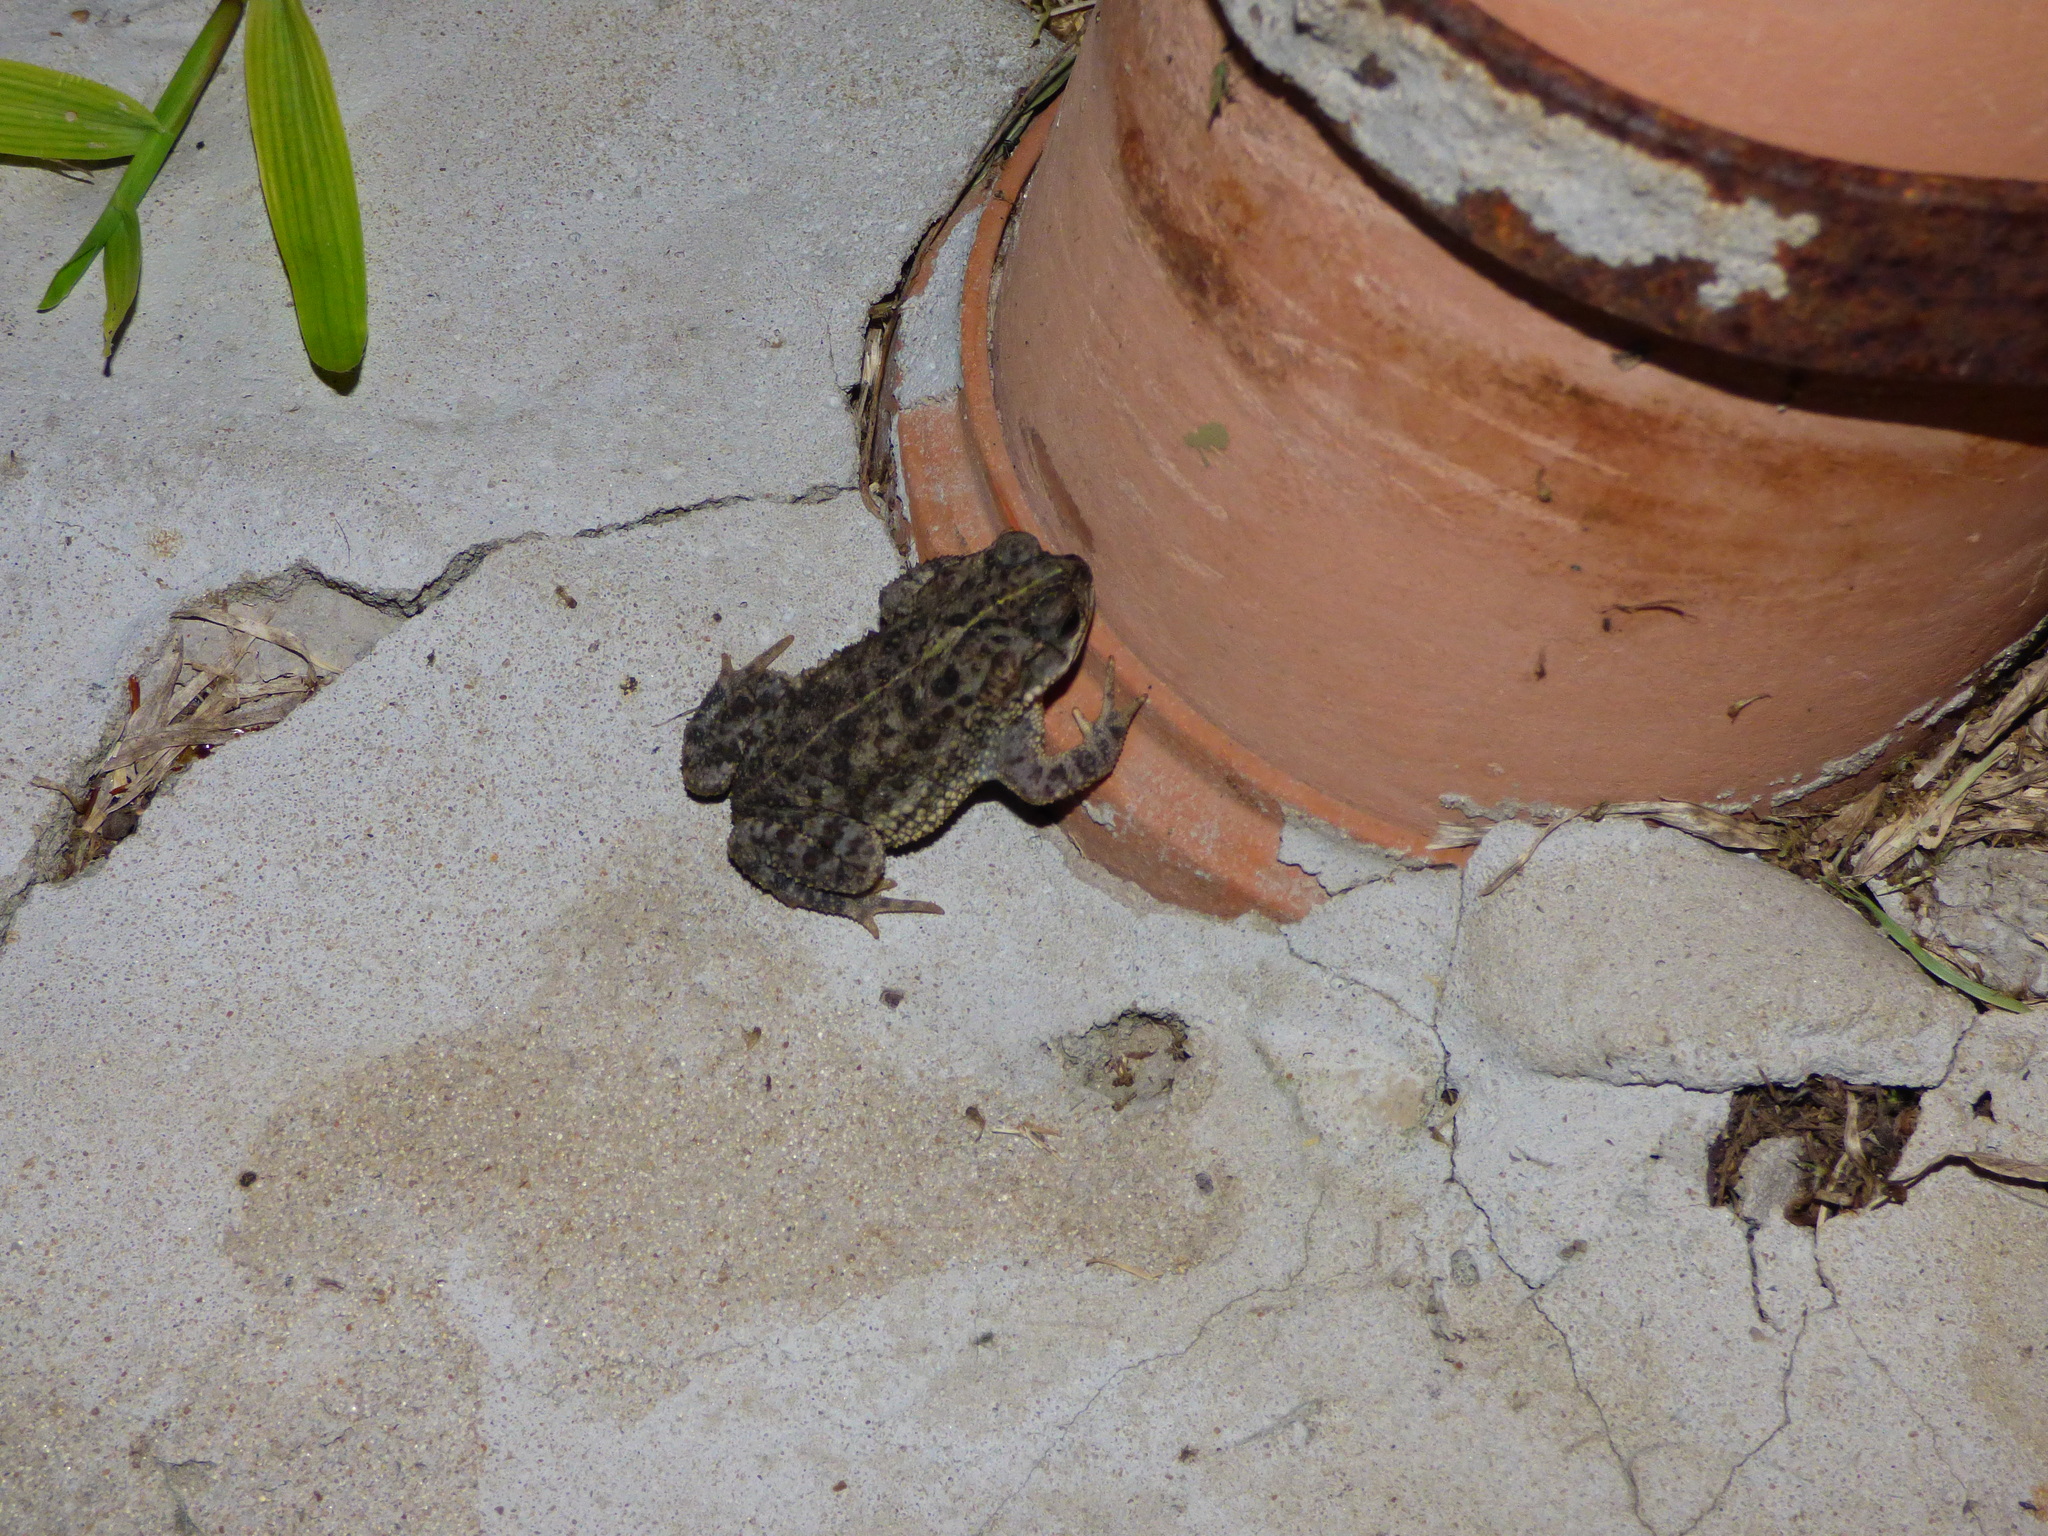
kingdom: Animalia
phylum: Chordata
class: Amphibia
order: Anura
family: Bufonidae
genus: Rhinella
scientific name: Rhinella dorbignyi
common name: D´orbigny’s toad
